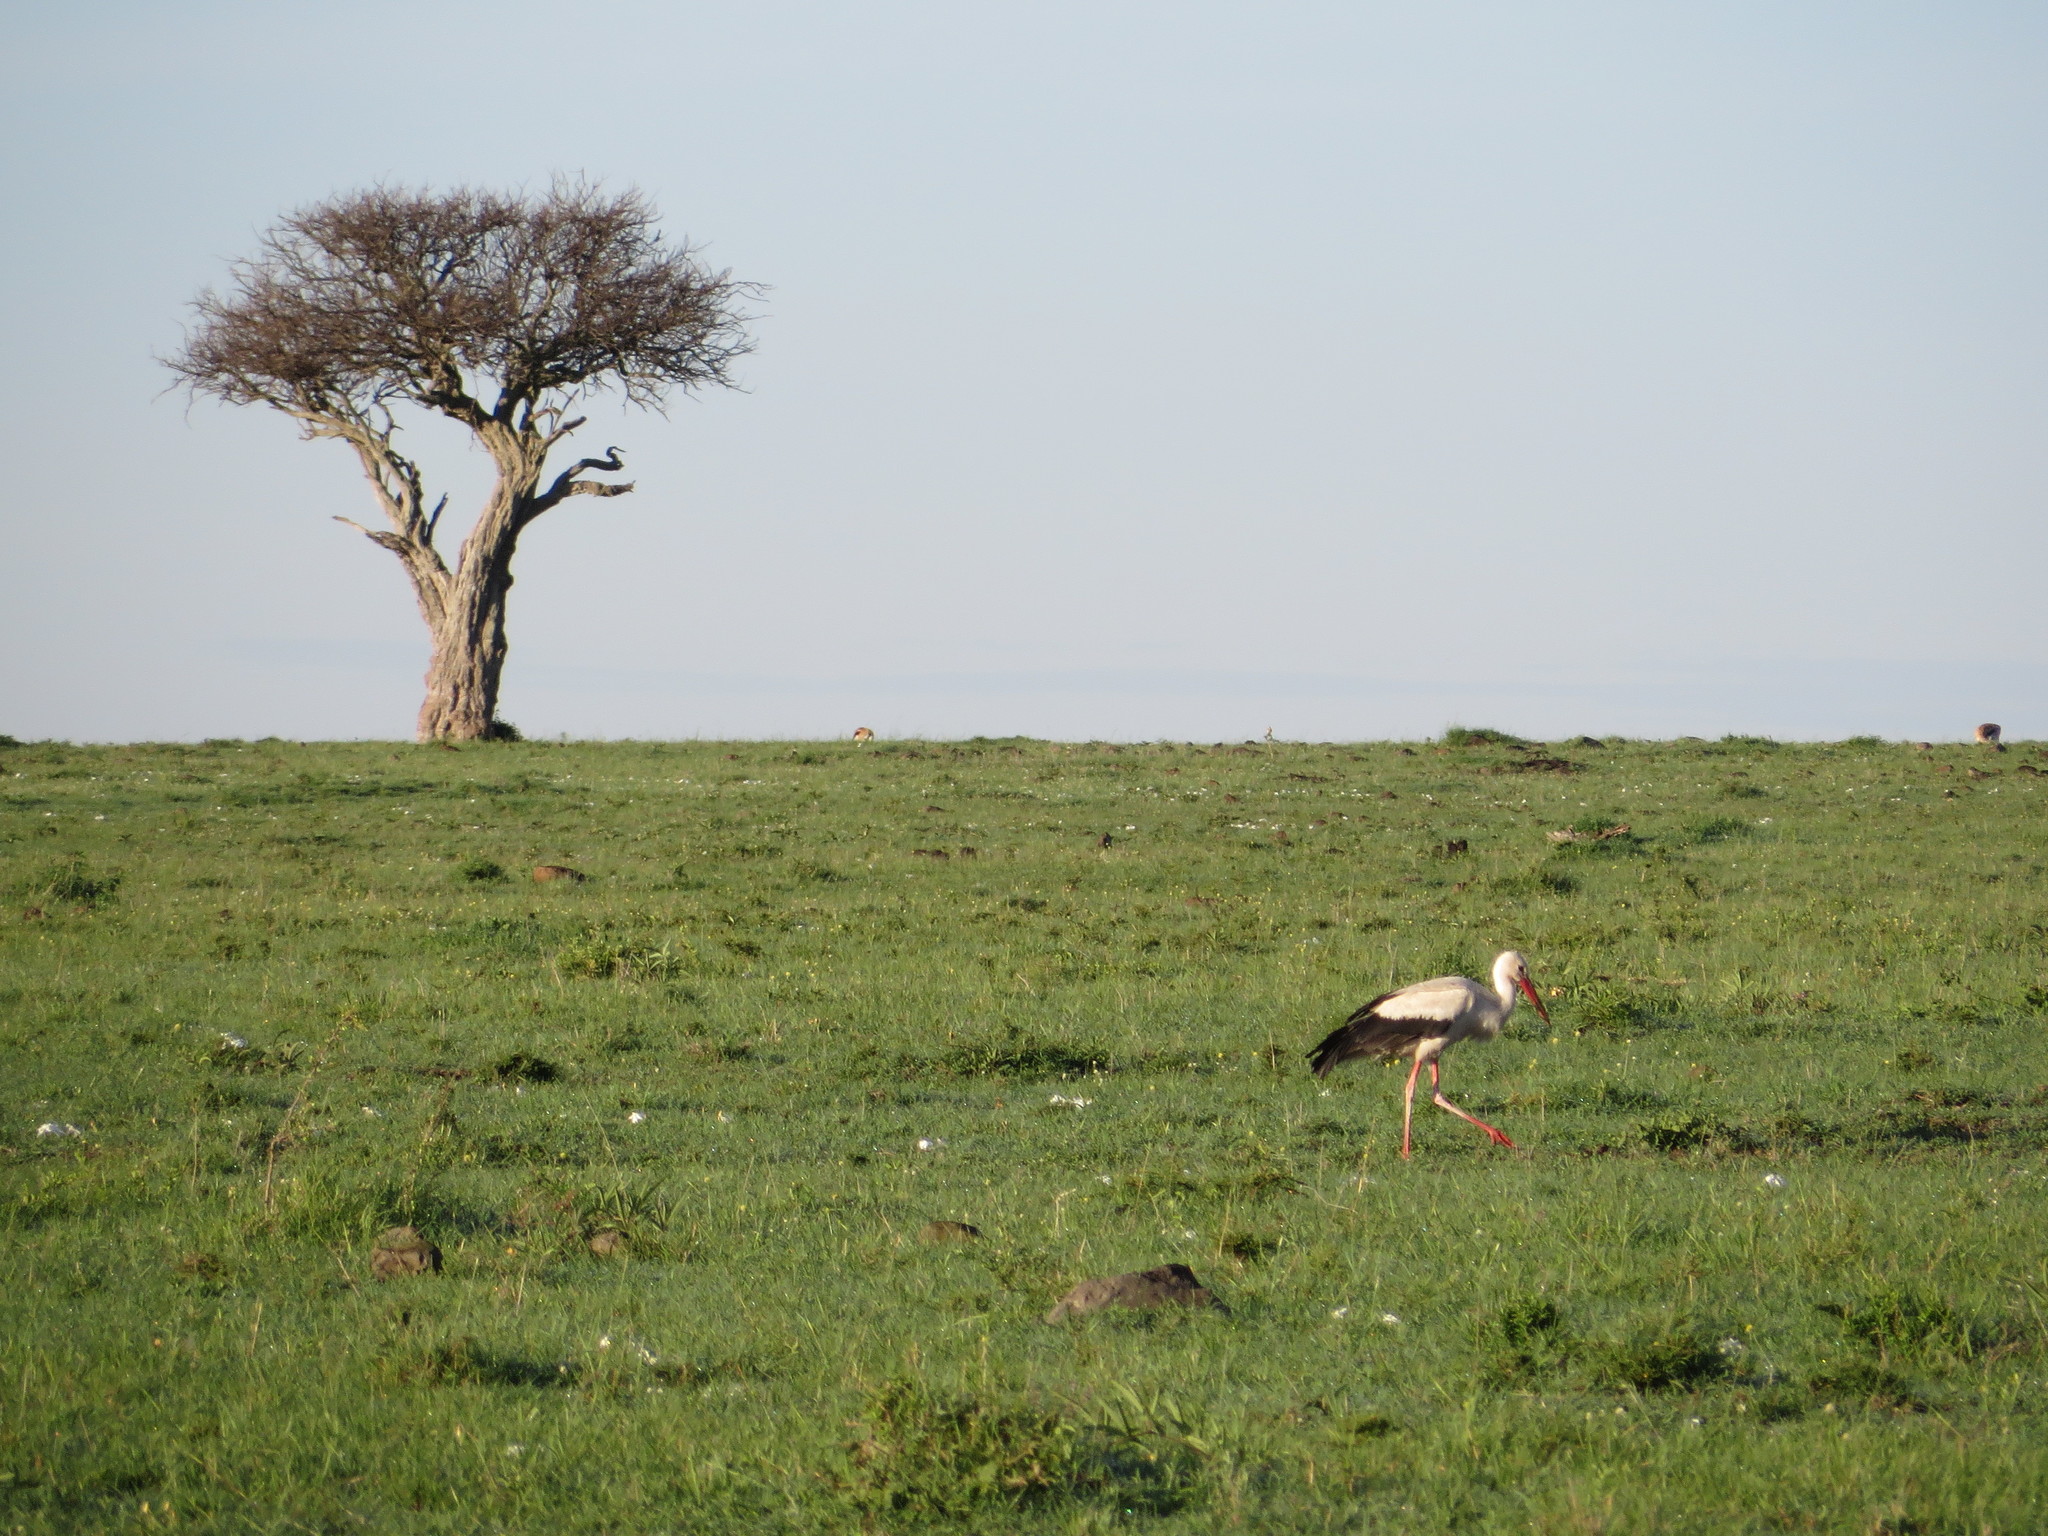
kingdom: Animalia
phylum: Chordata
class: Aves
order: Ciconiiformes
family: Ciconiidae
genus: Ciconia
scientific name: Ciconia ciconia
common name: White stork
